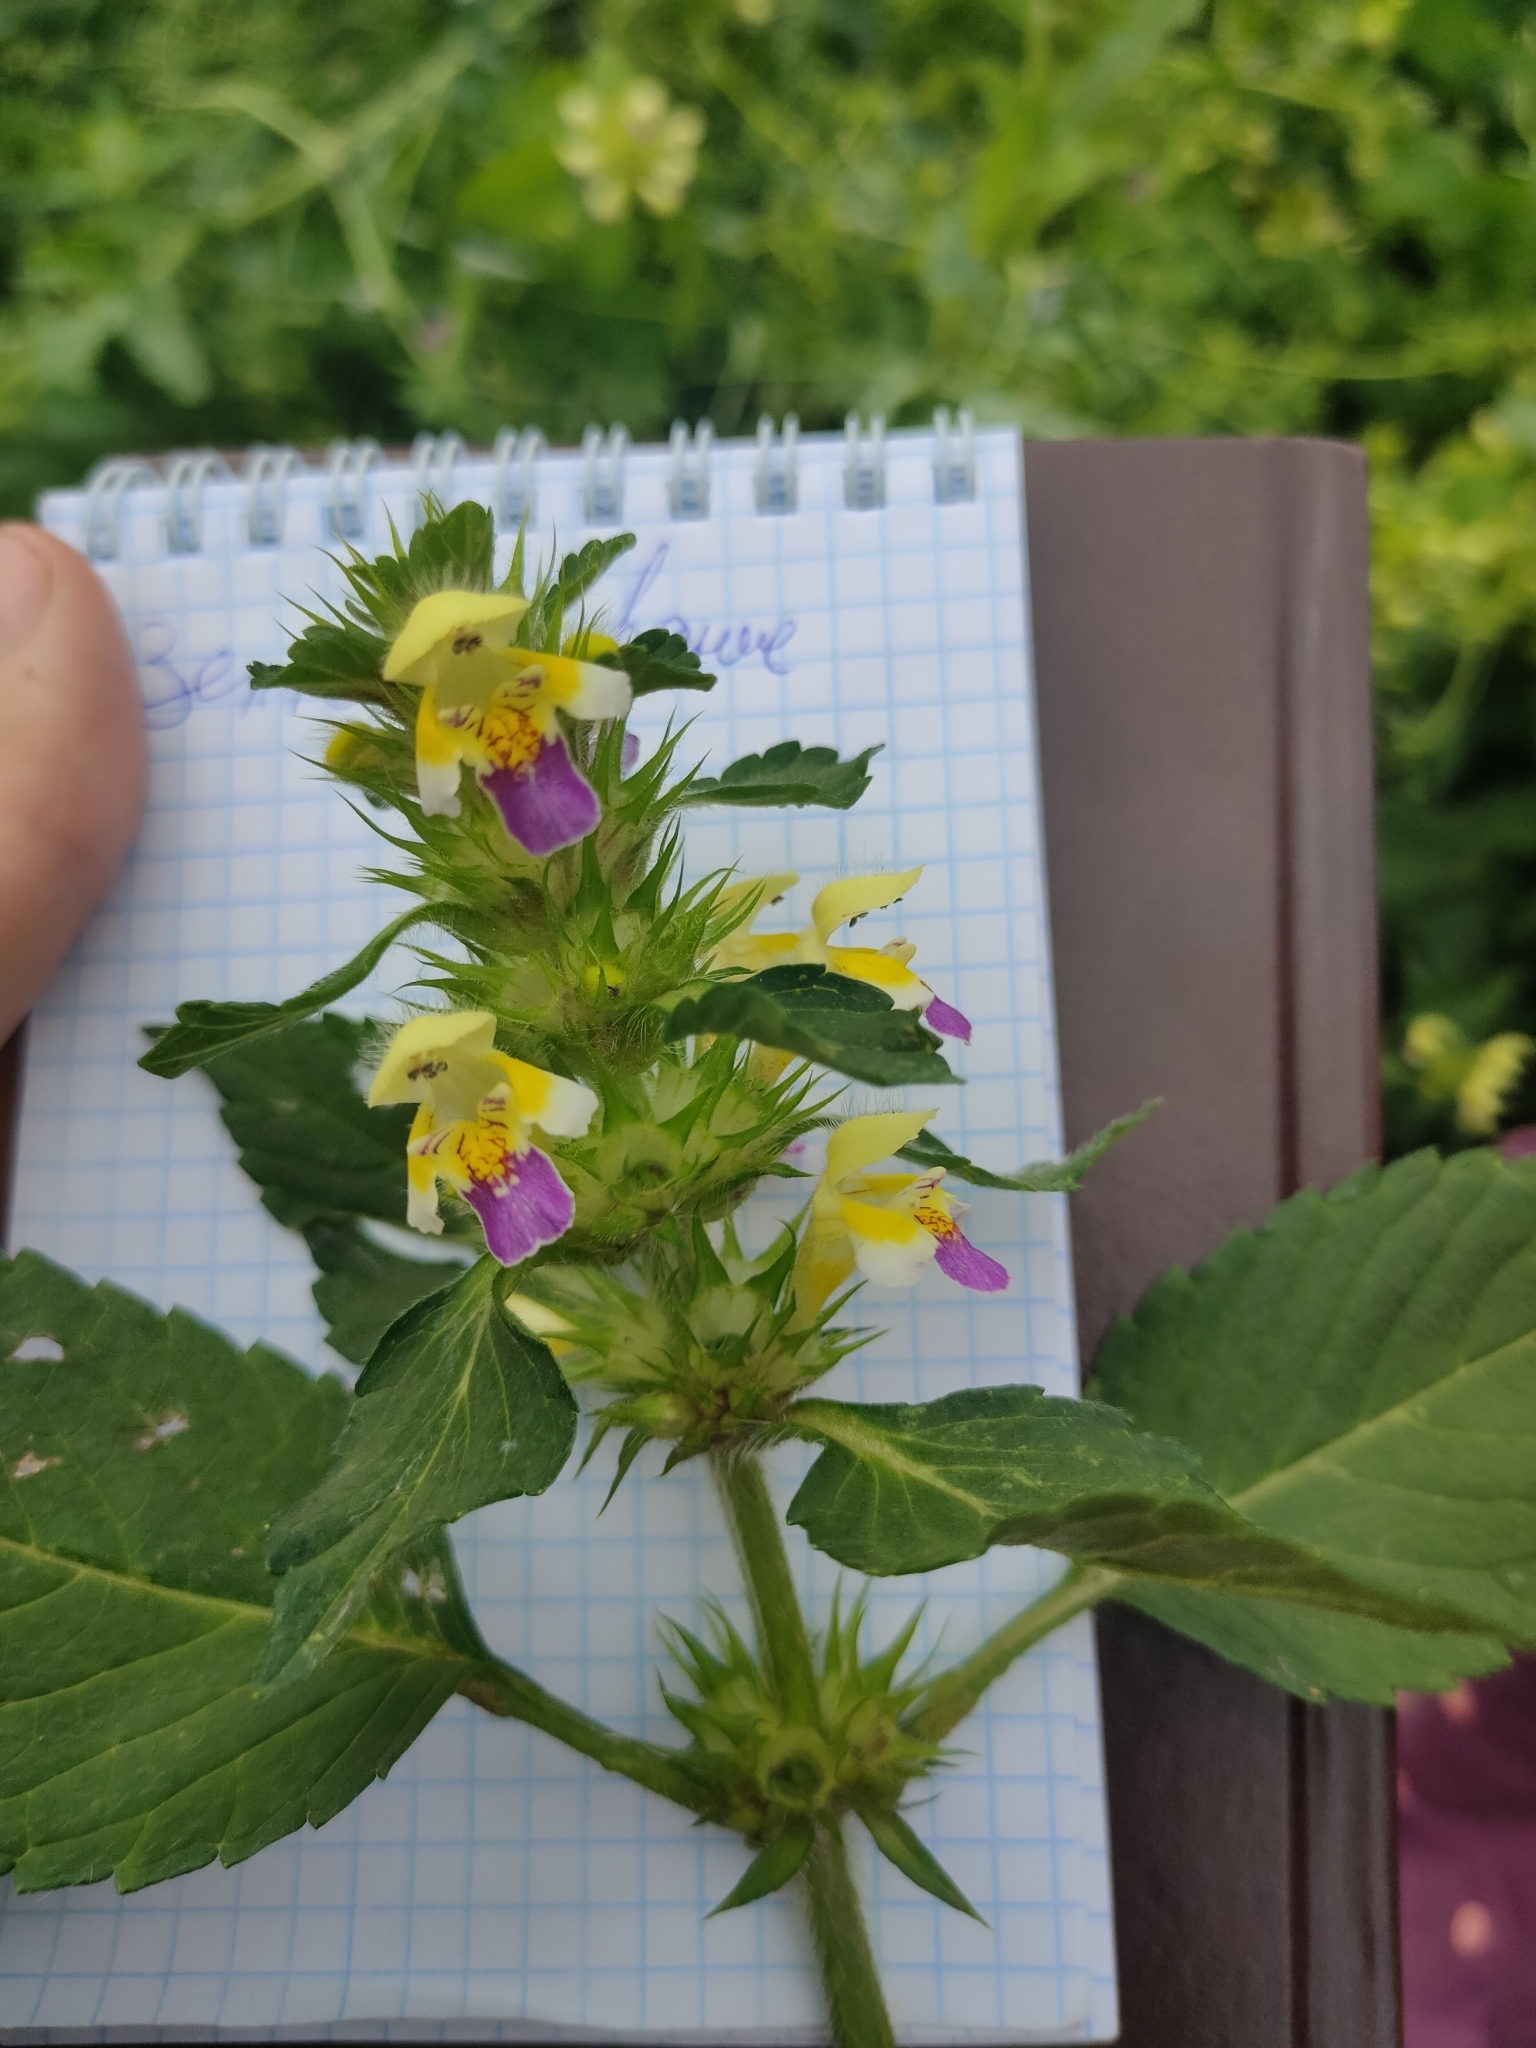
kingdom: Plantae
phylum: Tracheophyta
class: Magnoliopsida
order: Lamiales
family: Lamiaceae
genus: Galeopsis
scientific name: Galeopsis speciosa
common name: Large-flowered hemp-nettle
